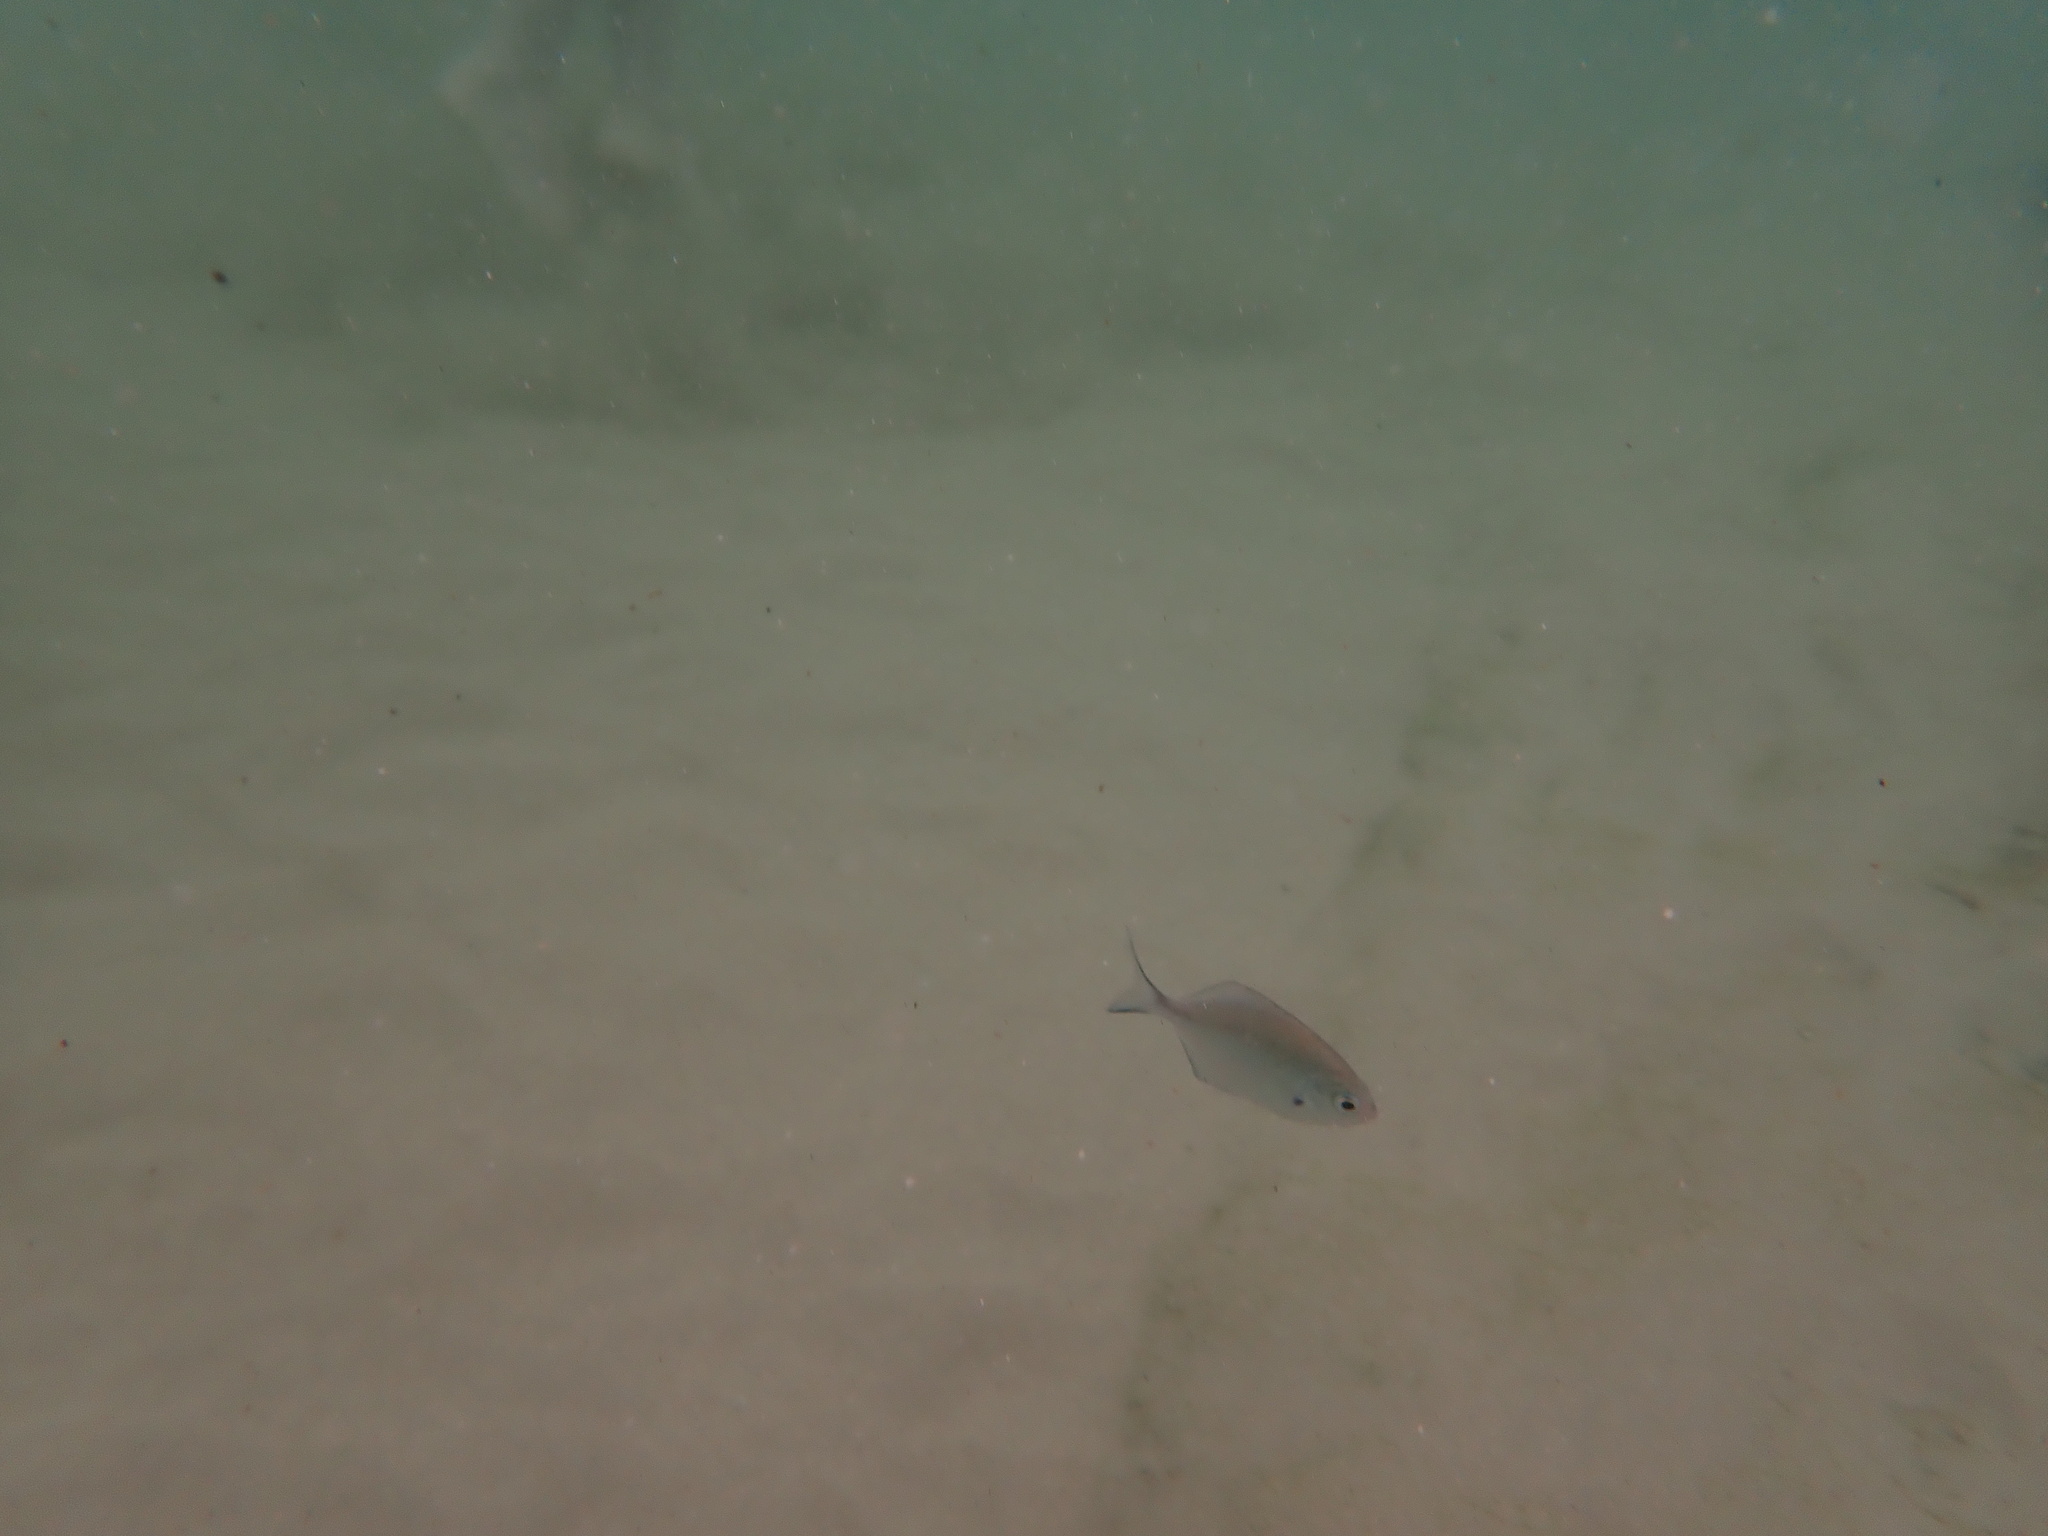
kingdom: Animalia
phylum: Chordata
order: Perciformes
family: Kyphosidae
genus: Scorpis
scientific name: Scorpis lineolata
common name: Sweep
